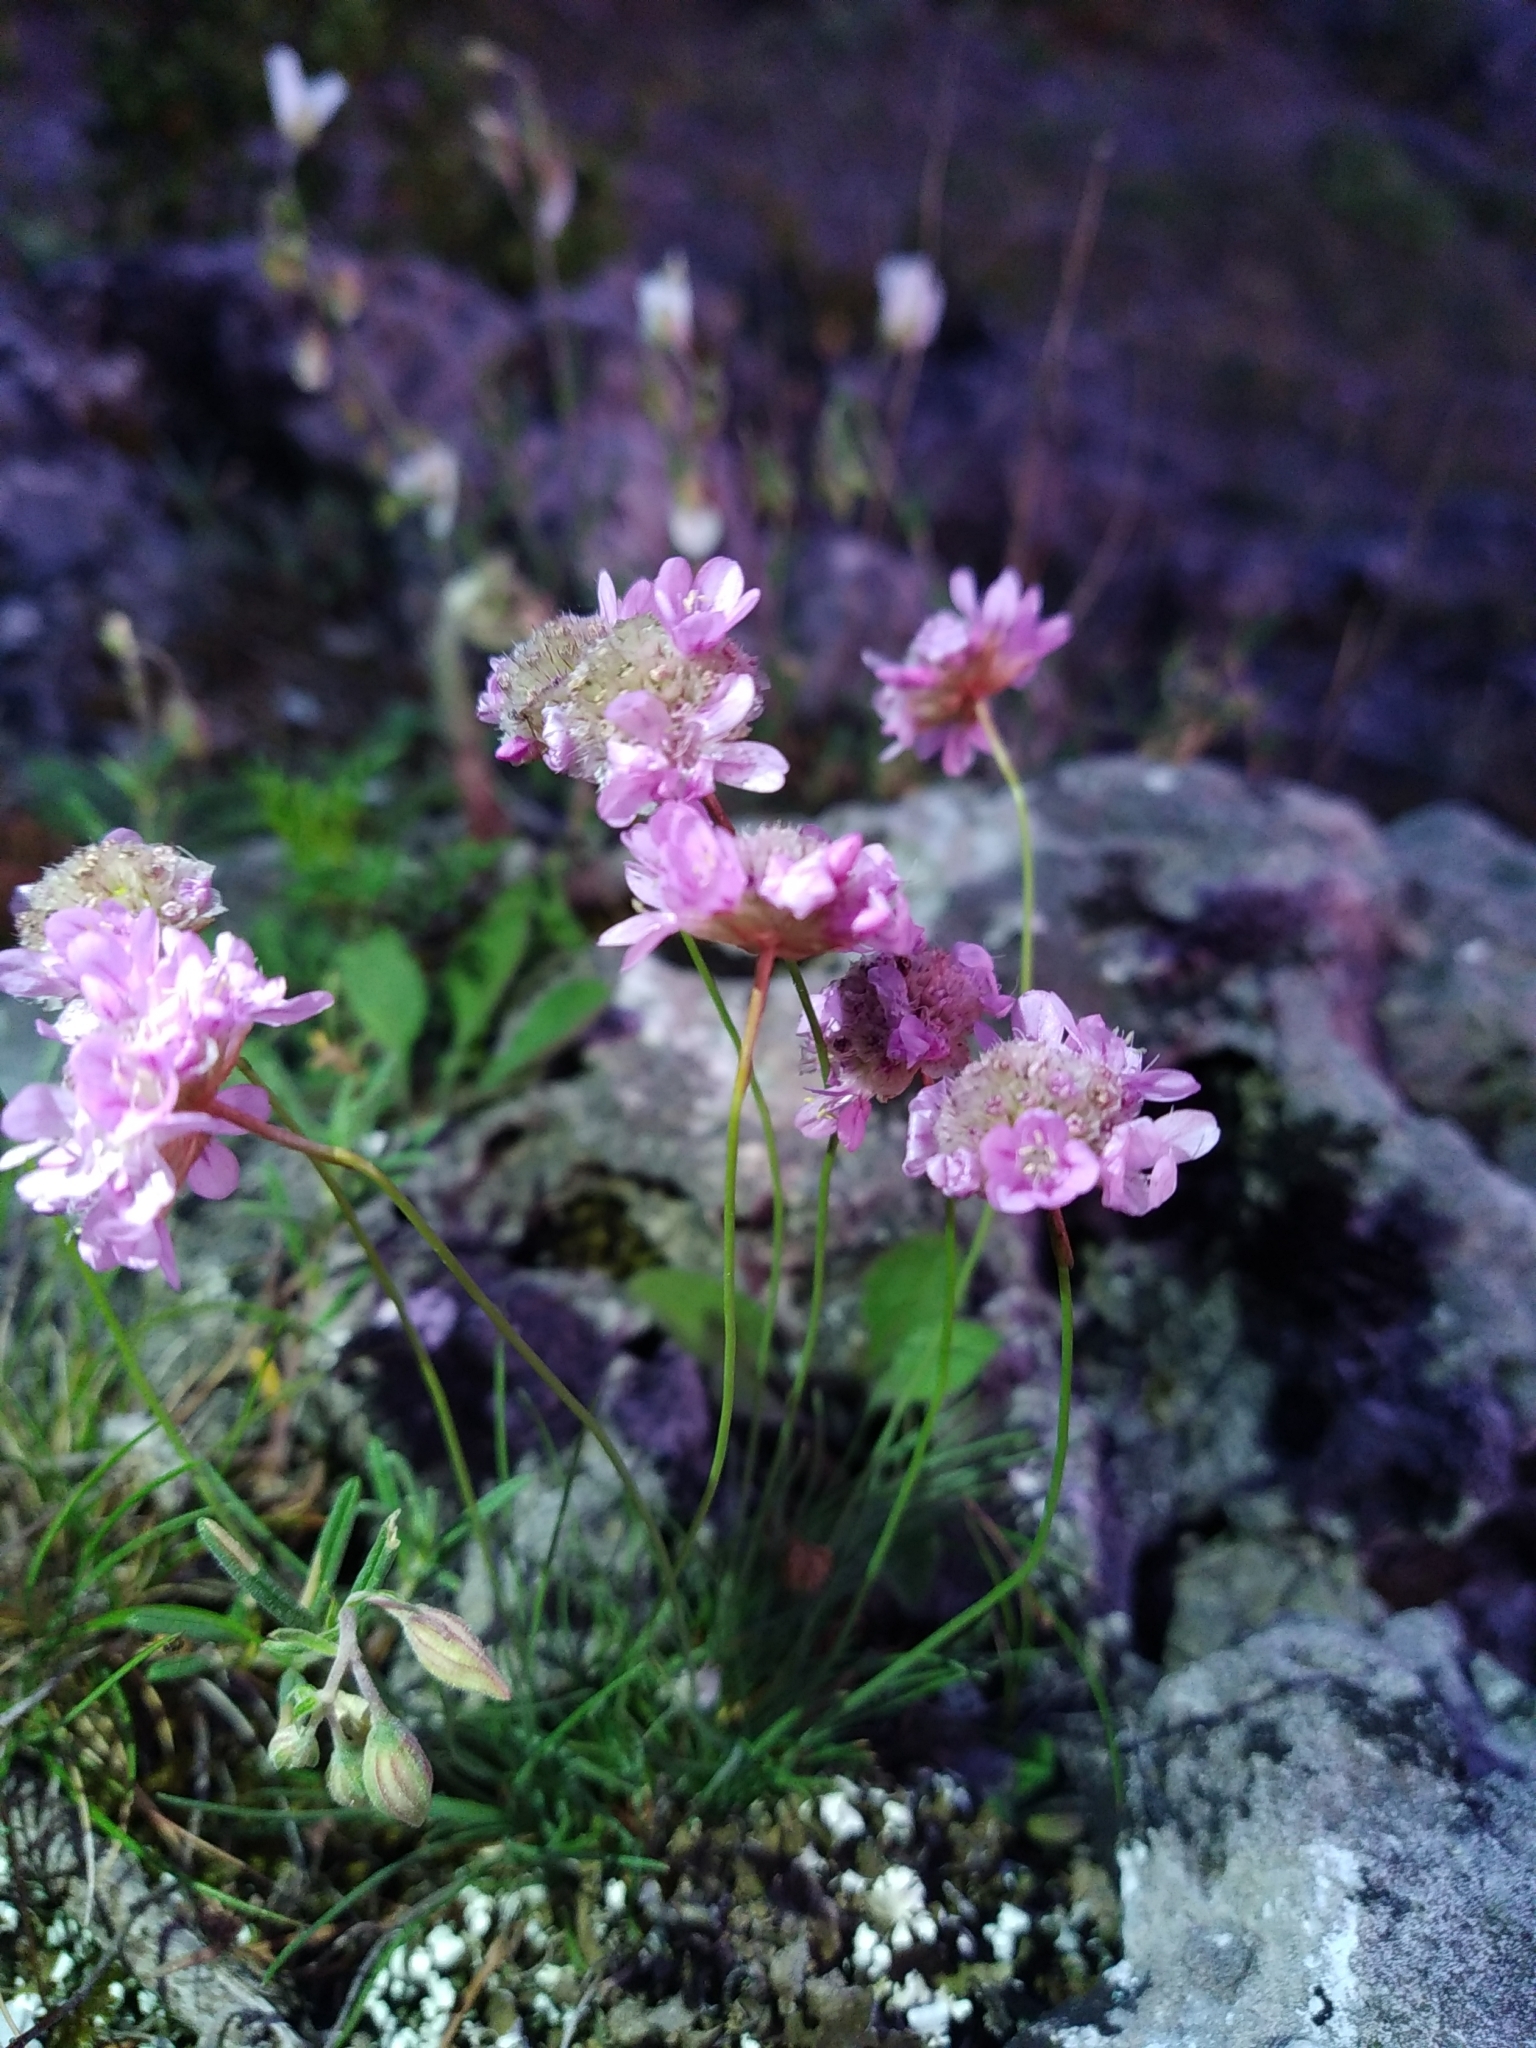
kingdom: Plantae
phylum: Tracheophyta
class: Magnoliopsida
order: Caryophyllales
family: Plumbaginaceae
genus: Armeria
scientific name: Armeria girardii
